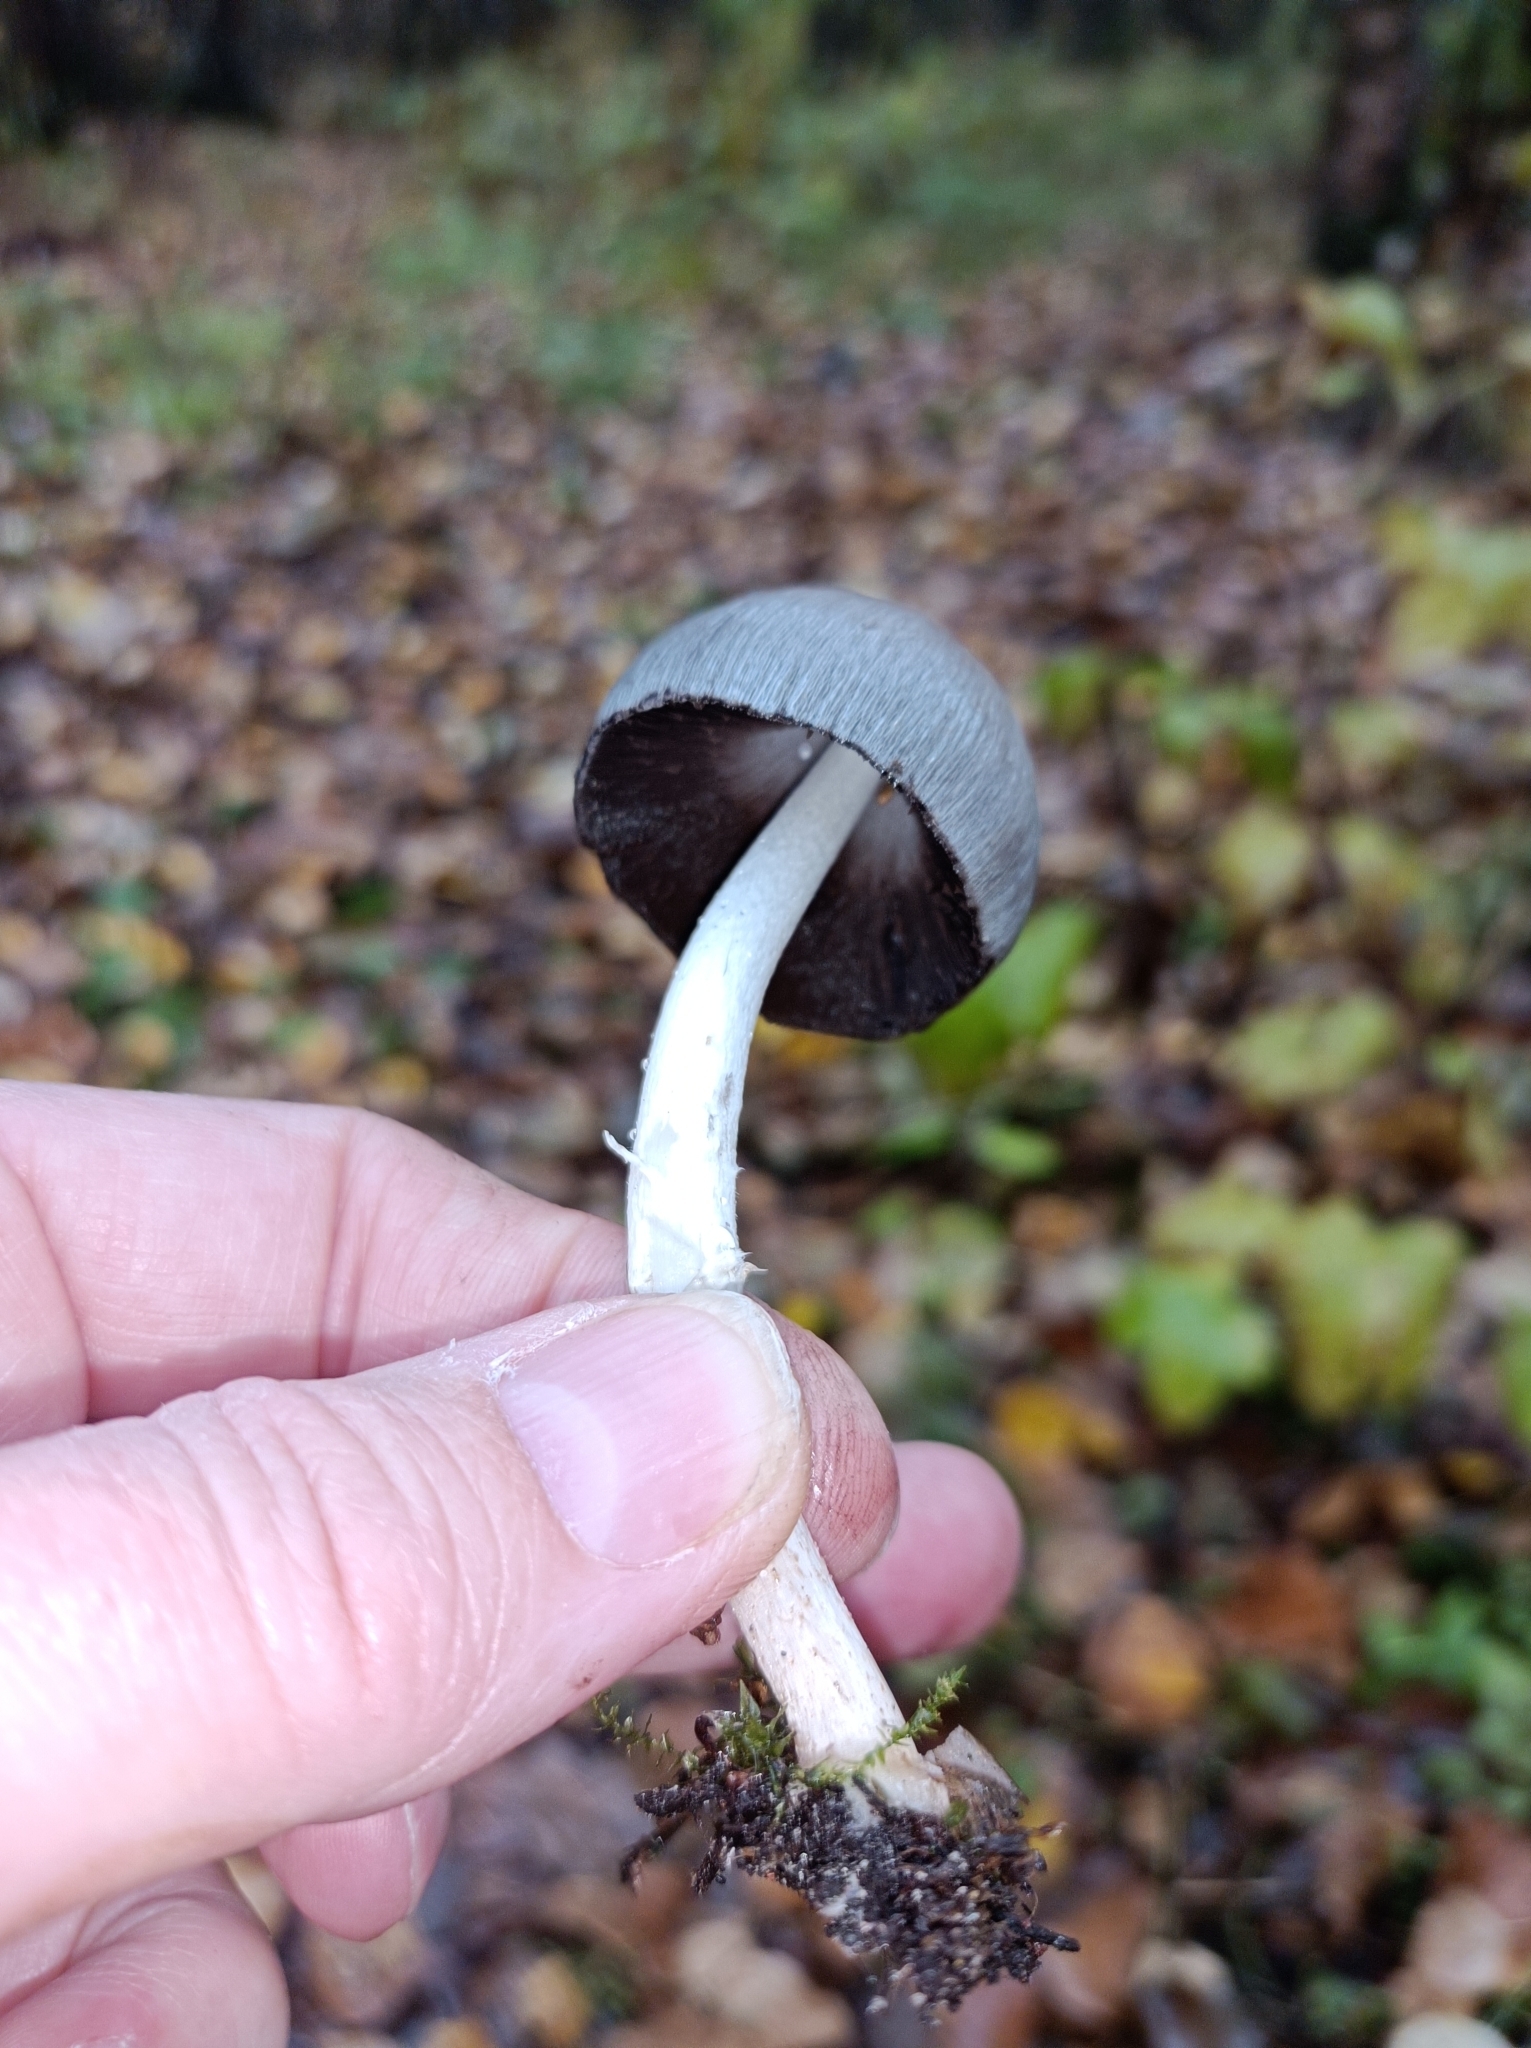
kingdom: Fungi
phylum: Basidiomycota
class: Agaricomycetes
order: Agaricales
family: Psathyrellaceae
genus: Coprinopsis
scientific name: Coprinopsis atramentaria
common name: Common ink-cap
